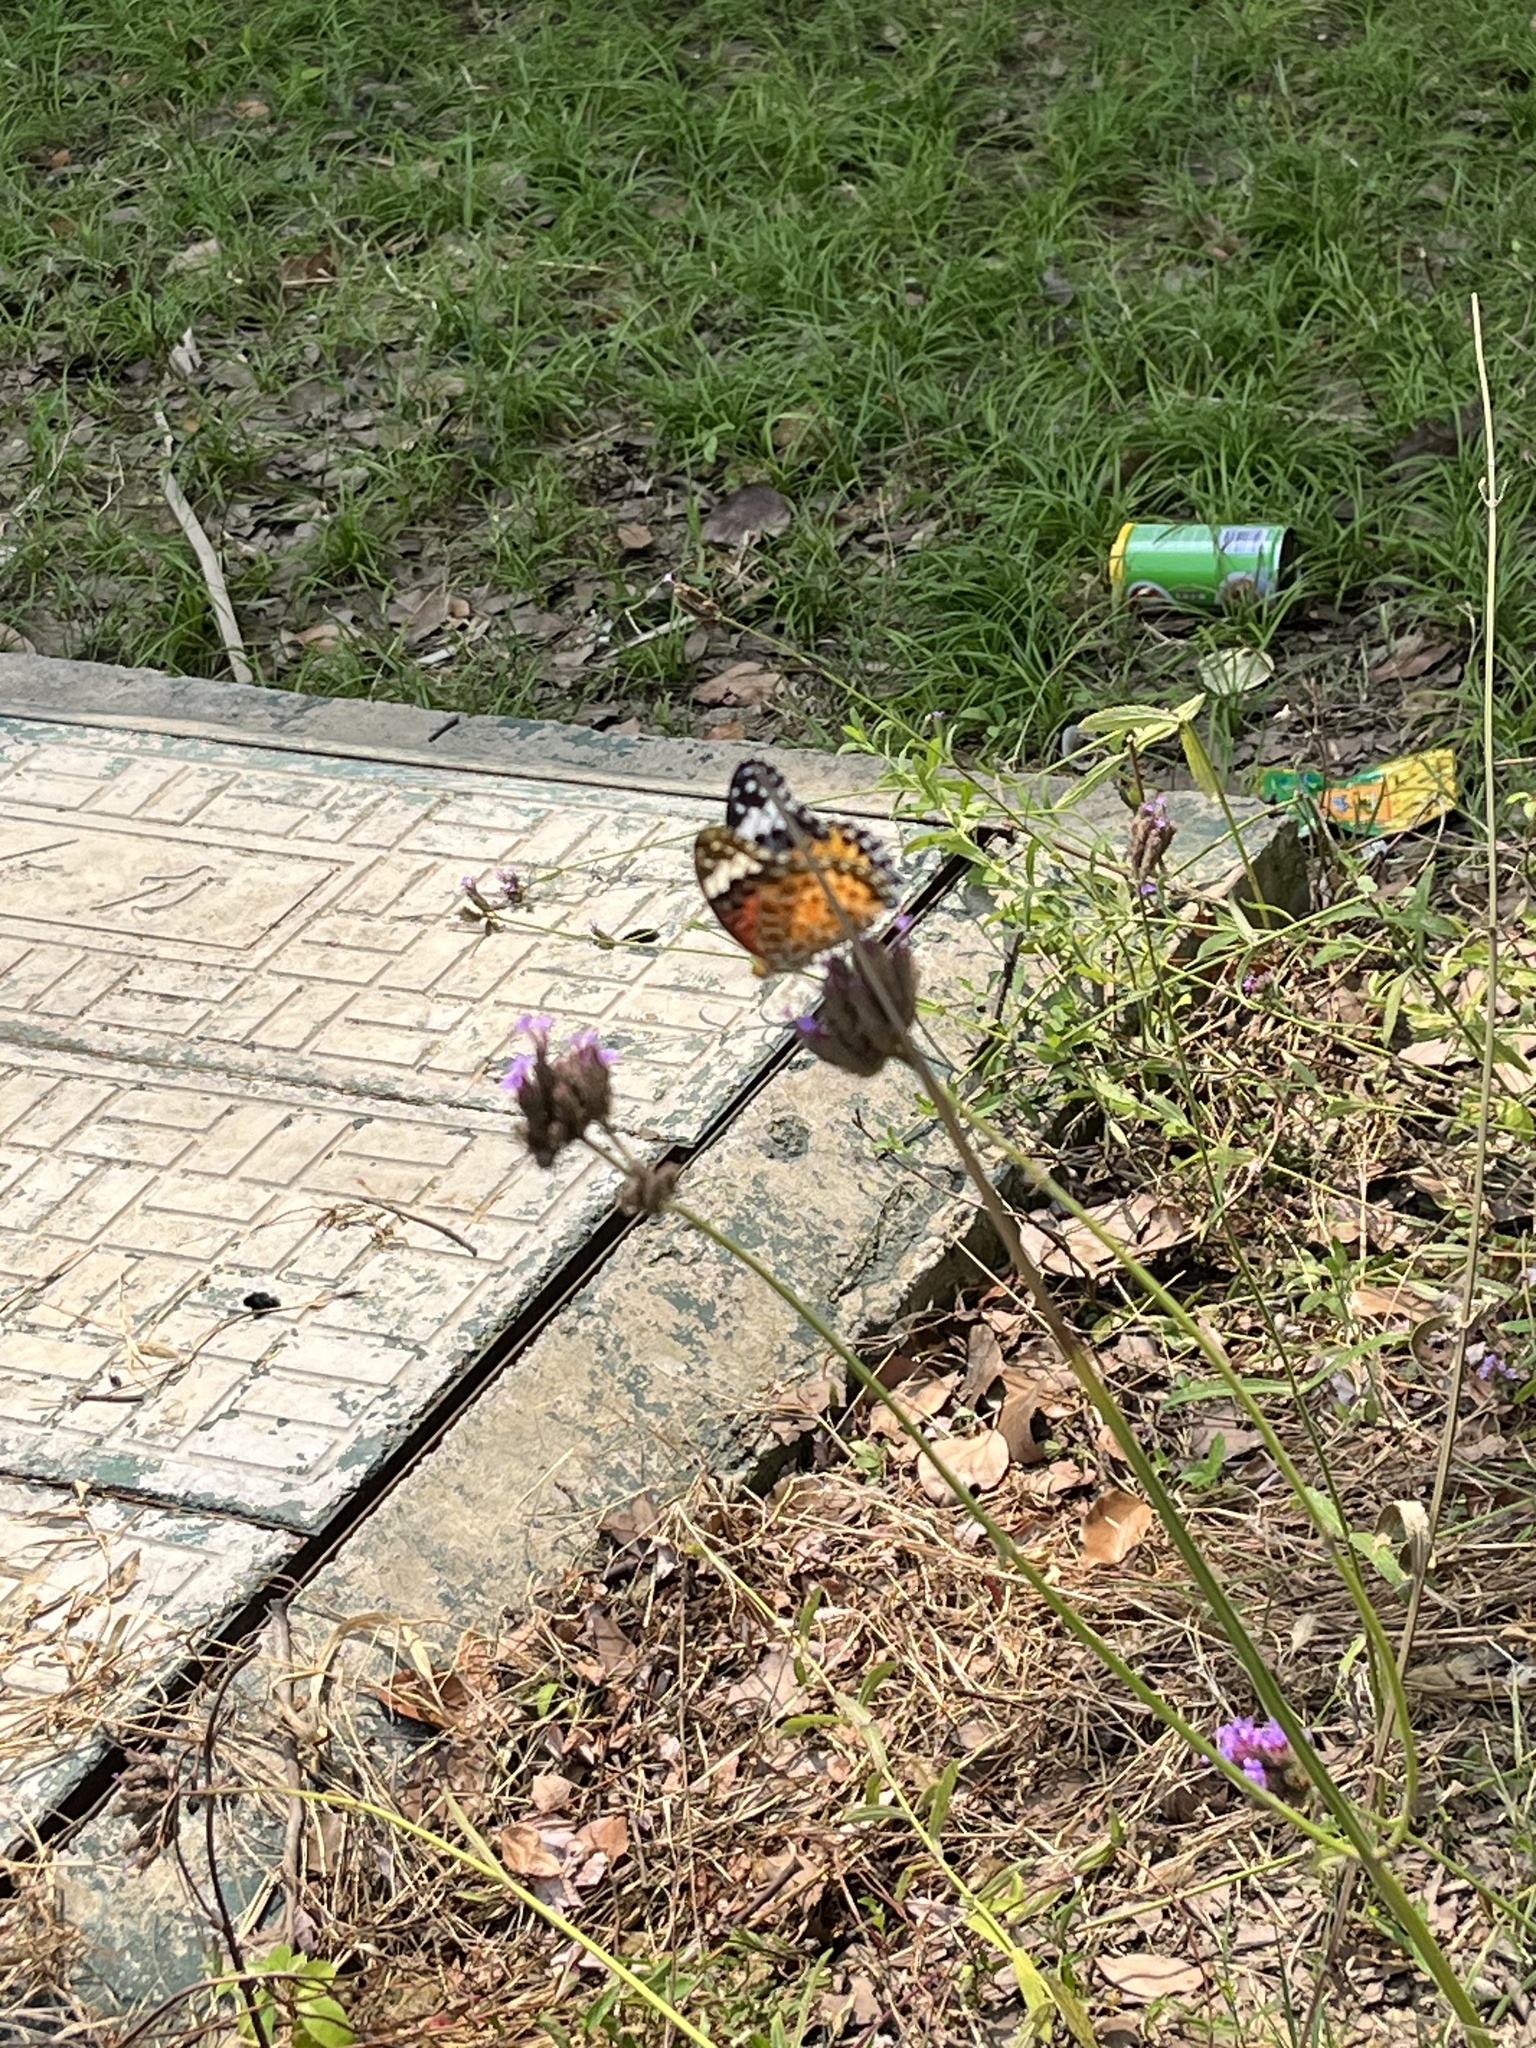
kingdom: Animalia
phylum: Arthropoda
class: Insecta
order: Lepidoptera
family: Nymphalidae
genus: Argynnis
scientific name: Argynnis hyperbius
